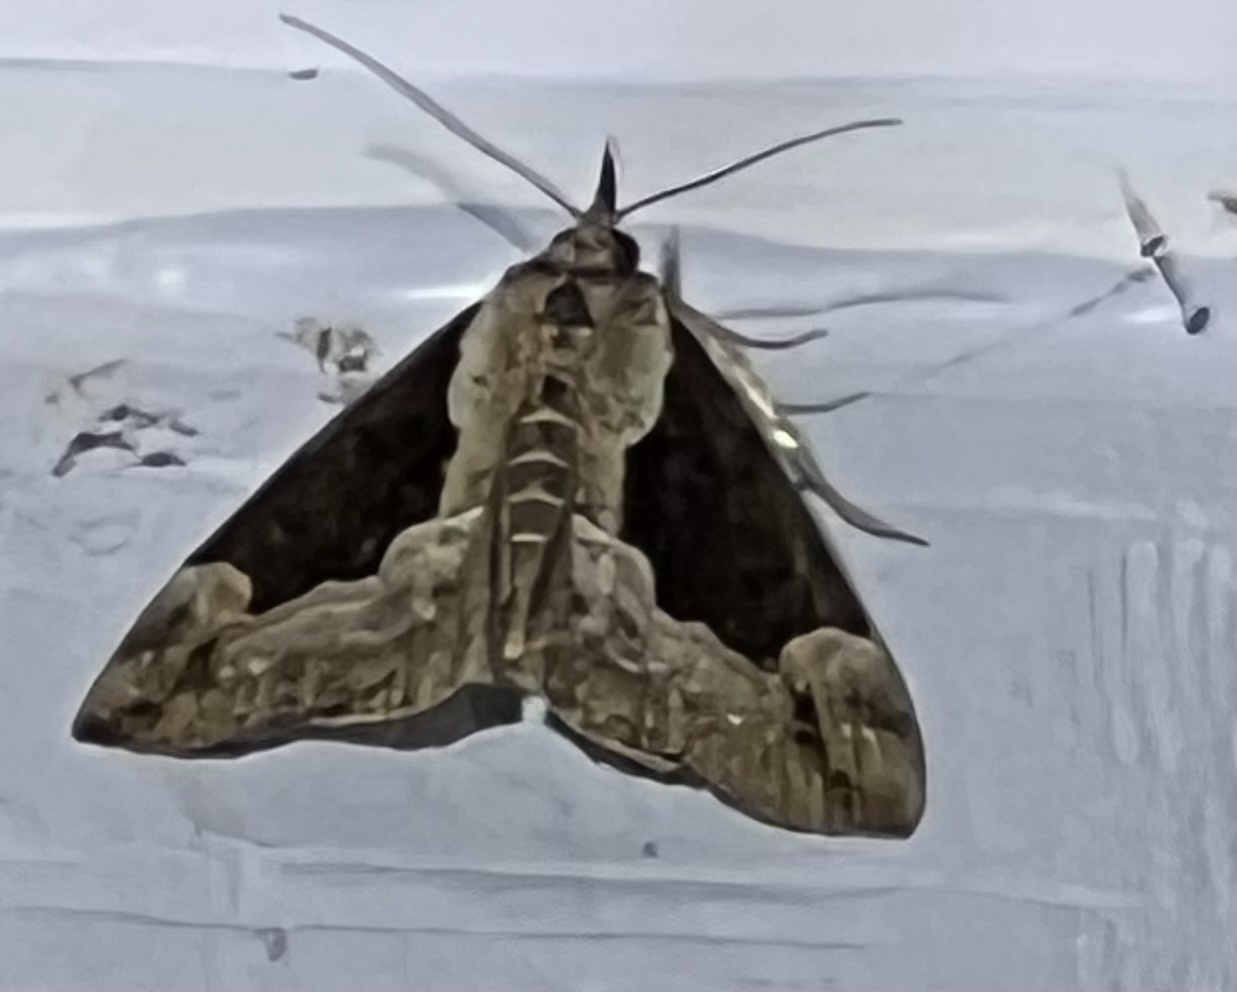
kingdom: Animalia
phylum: Arthropoda
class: Insecta
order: Lepidoptera
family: Erebidae
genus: Hypena
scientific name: Hypena baltimoralis
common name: Baltimore snout
